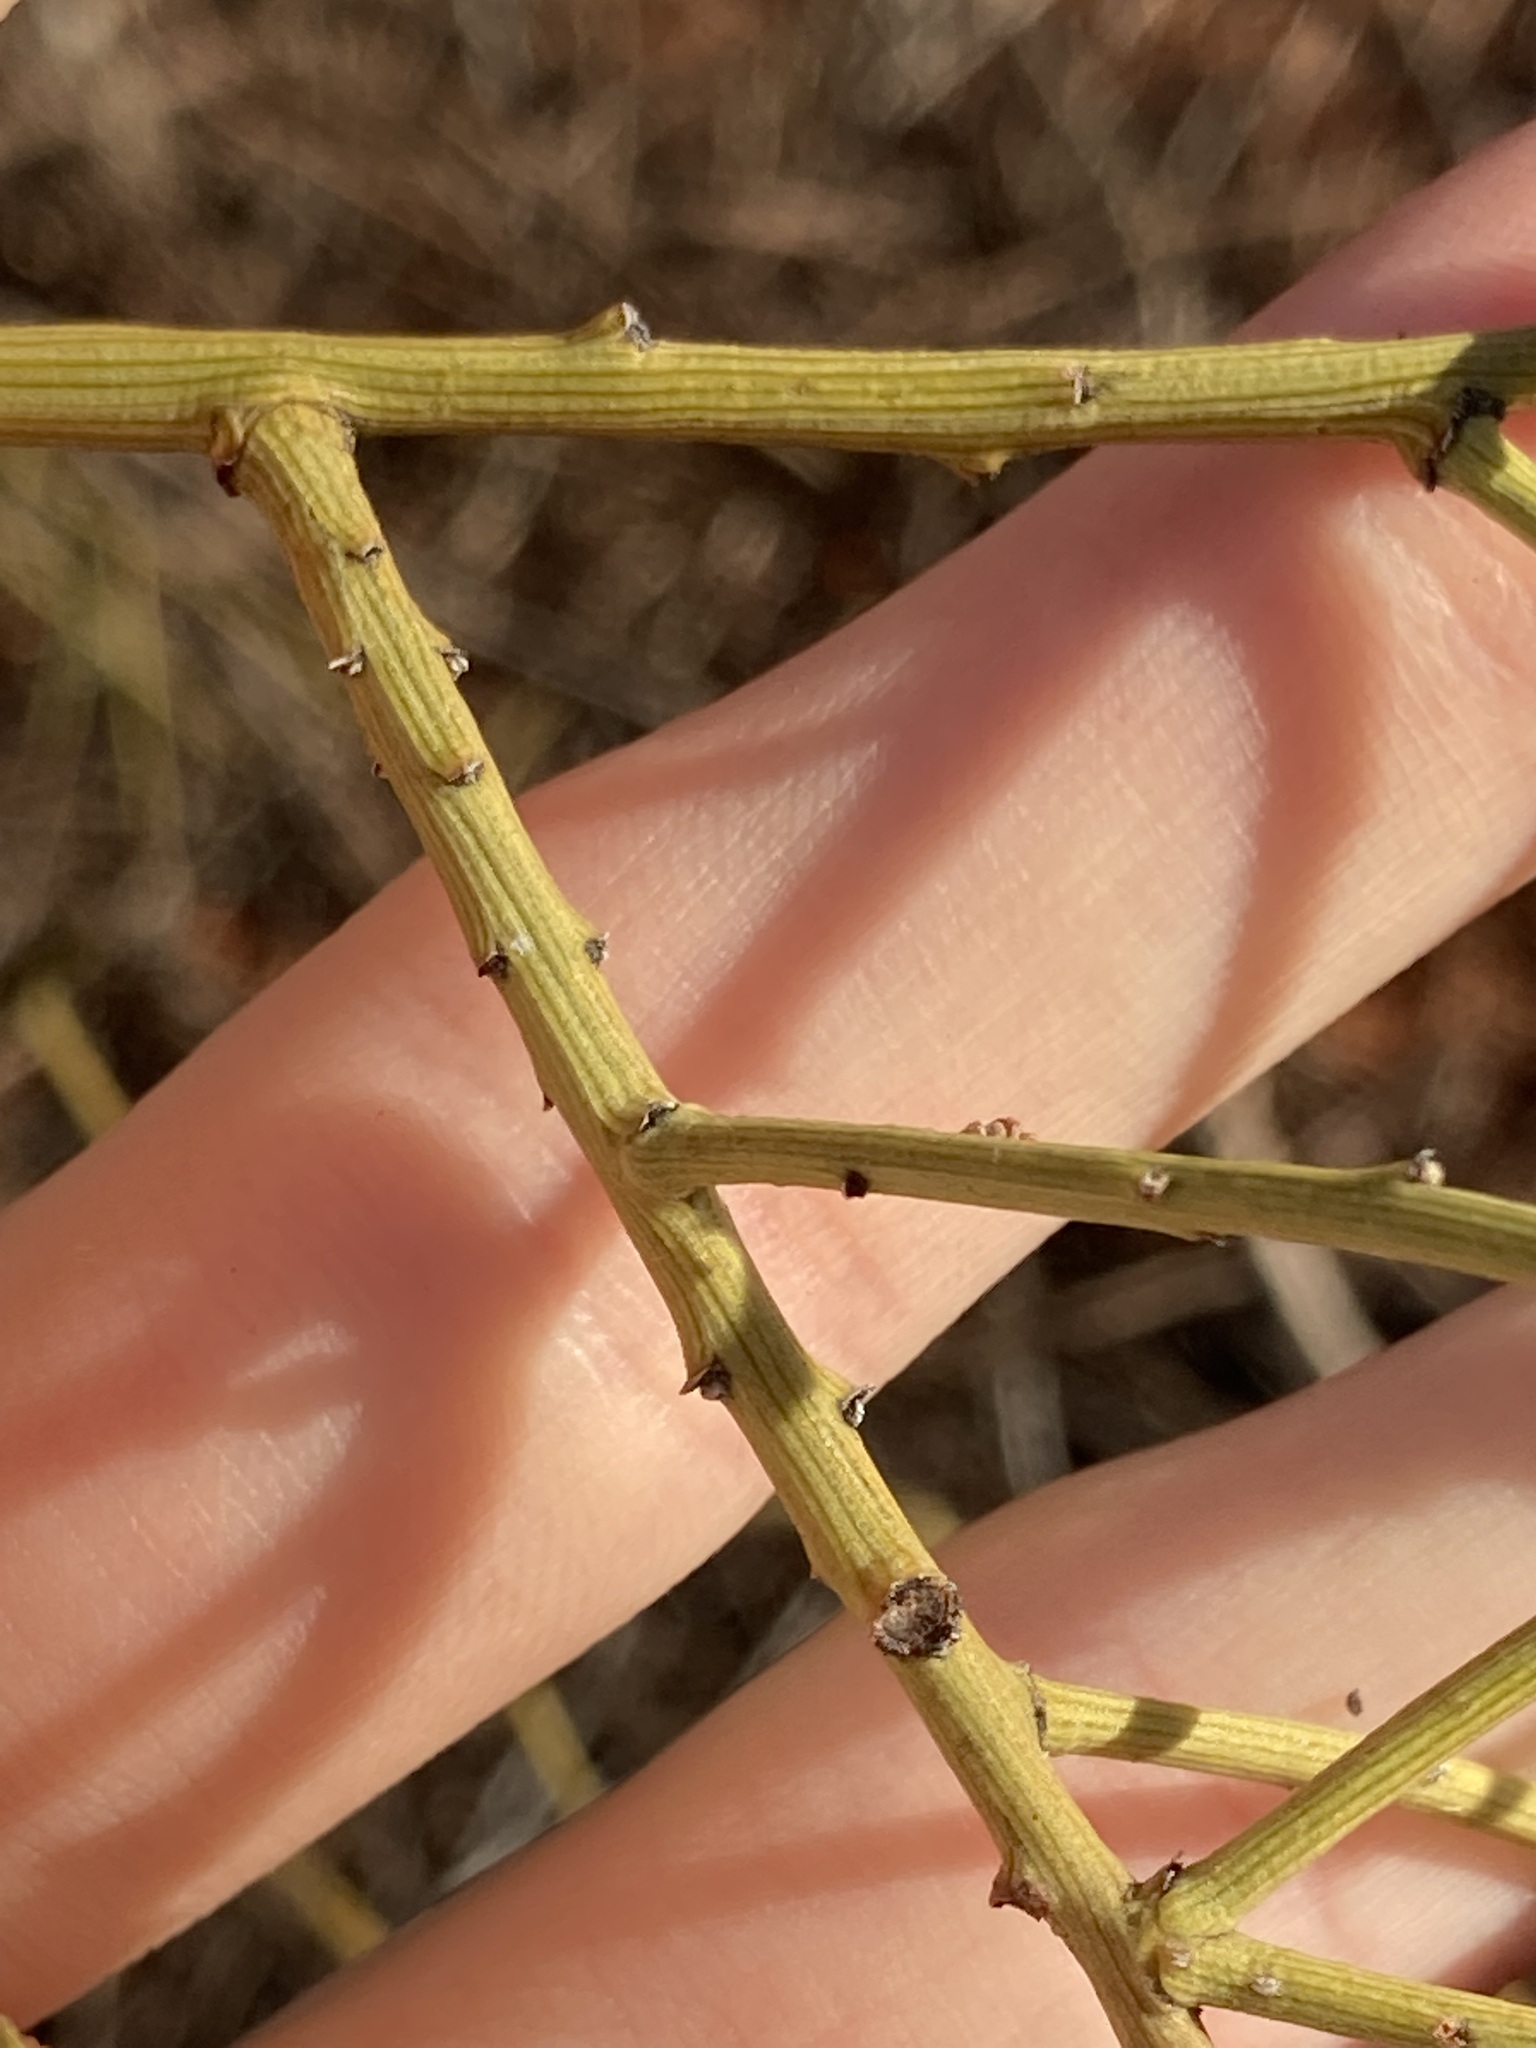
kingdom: Plantae
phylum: Tracheophyta
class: Magnoliopsida
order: Santalales
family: Santalaceae
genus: Exocarpos
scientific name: Exocarpos aphyllus
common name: Leafless ballart
